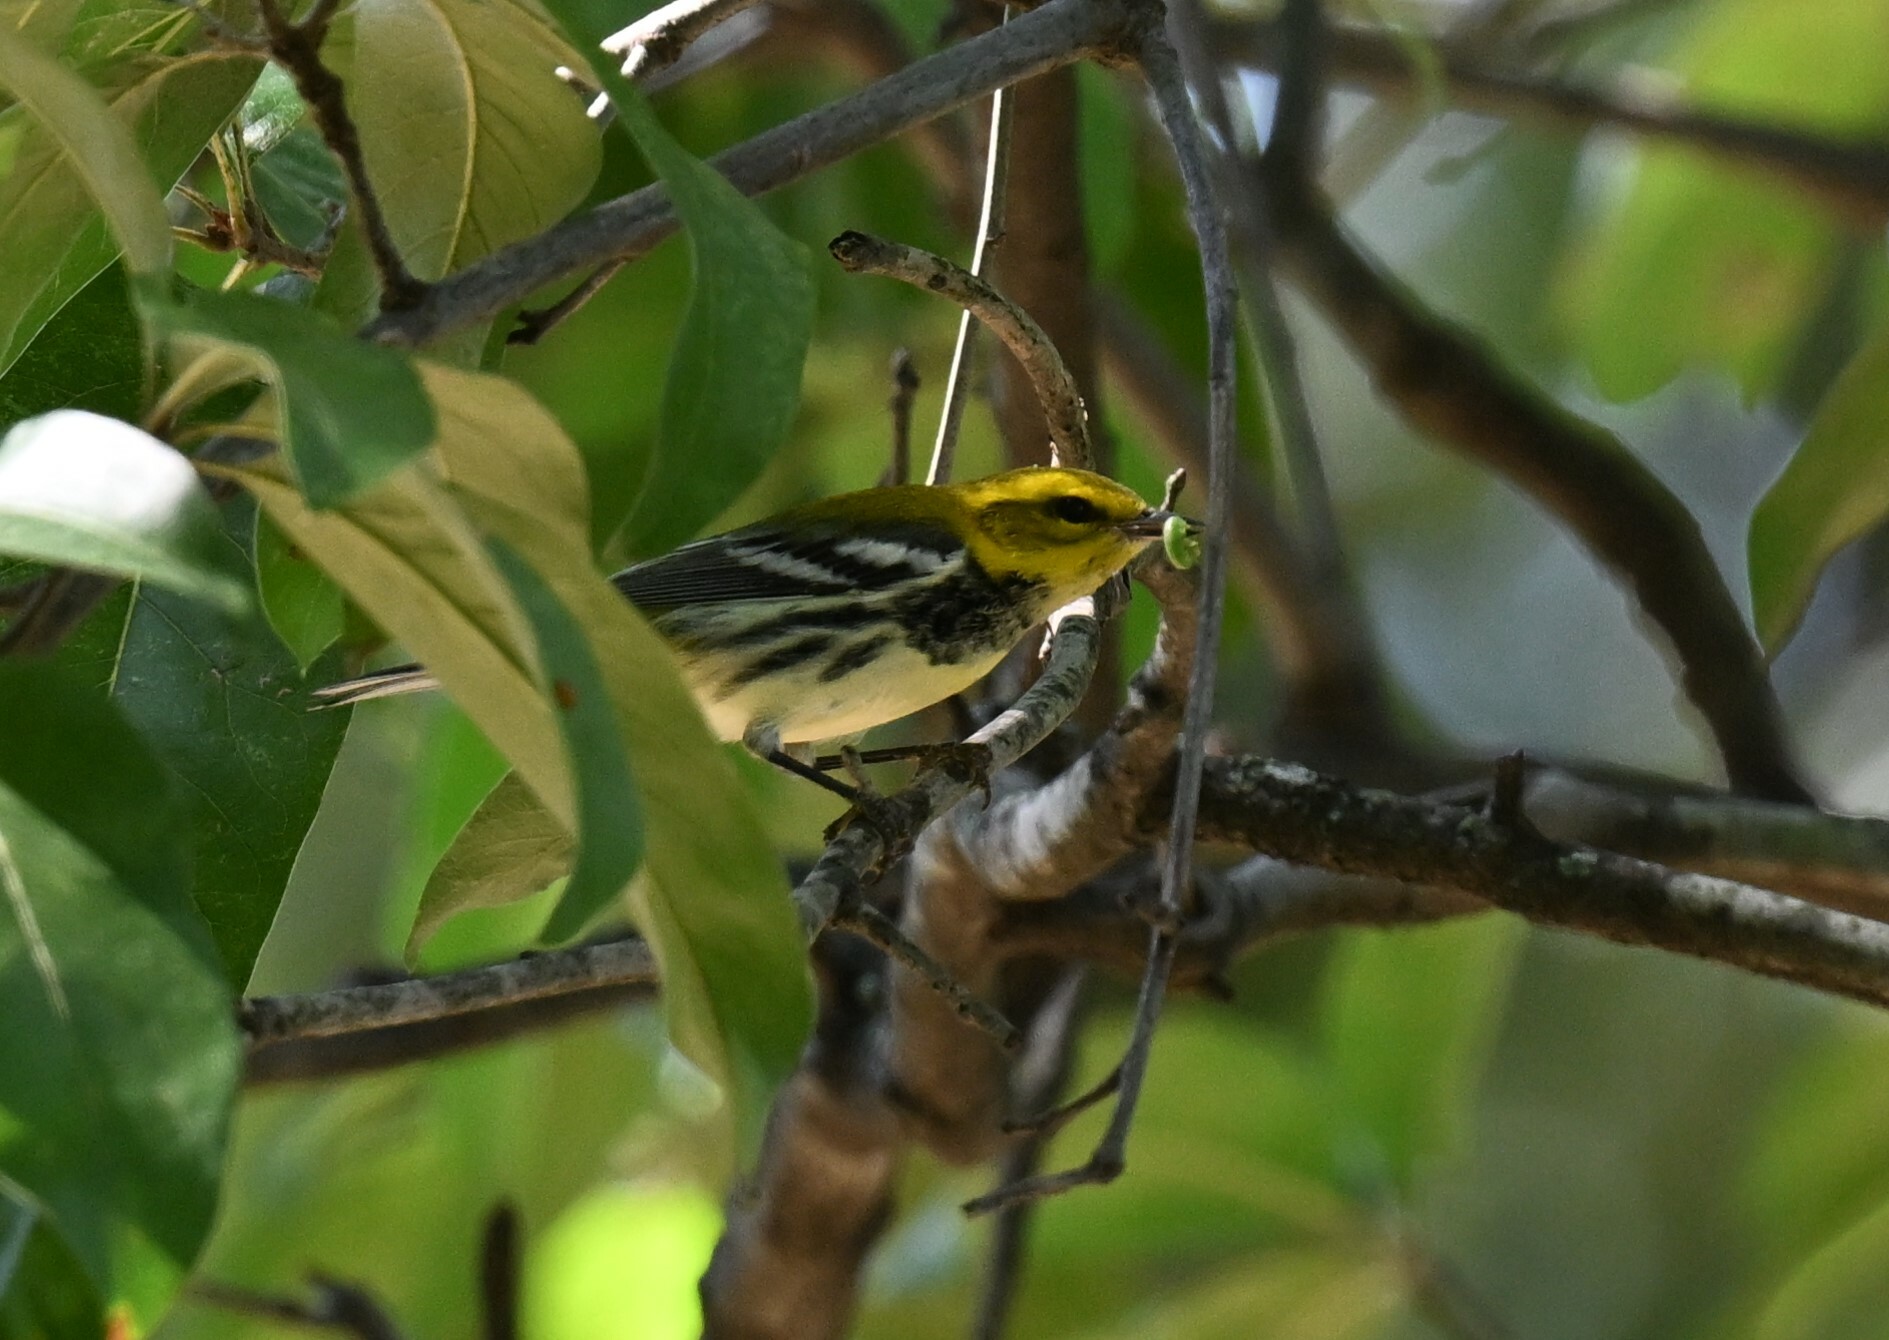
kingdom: Animalia
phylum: Chordata
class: Aves
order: Passeriformes
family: Parulidae
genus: Setophaga
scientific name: Setophaga virens
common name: Black-throated green warbler
